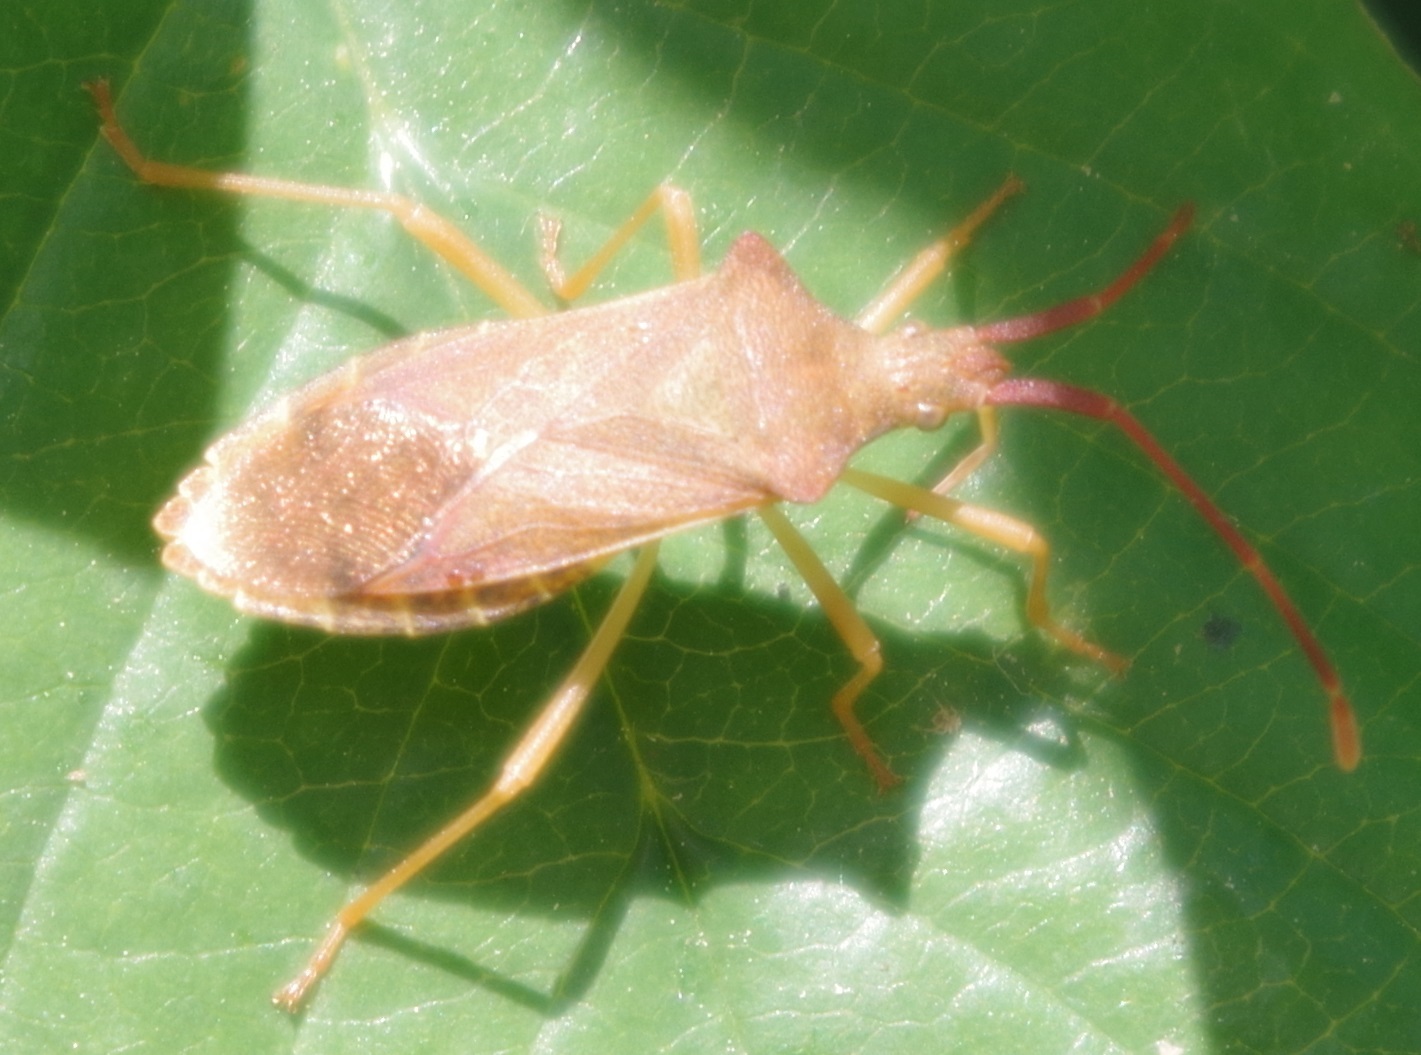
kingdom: Animalia
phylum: Arthropoda
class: Insecta
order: Hemiptera
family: Coreidae
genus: Gonocerus
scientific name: Gonocerus acuteangulatus
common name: Box bug
